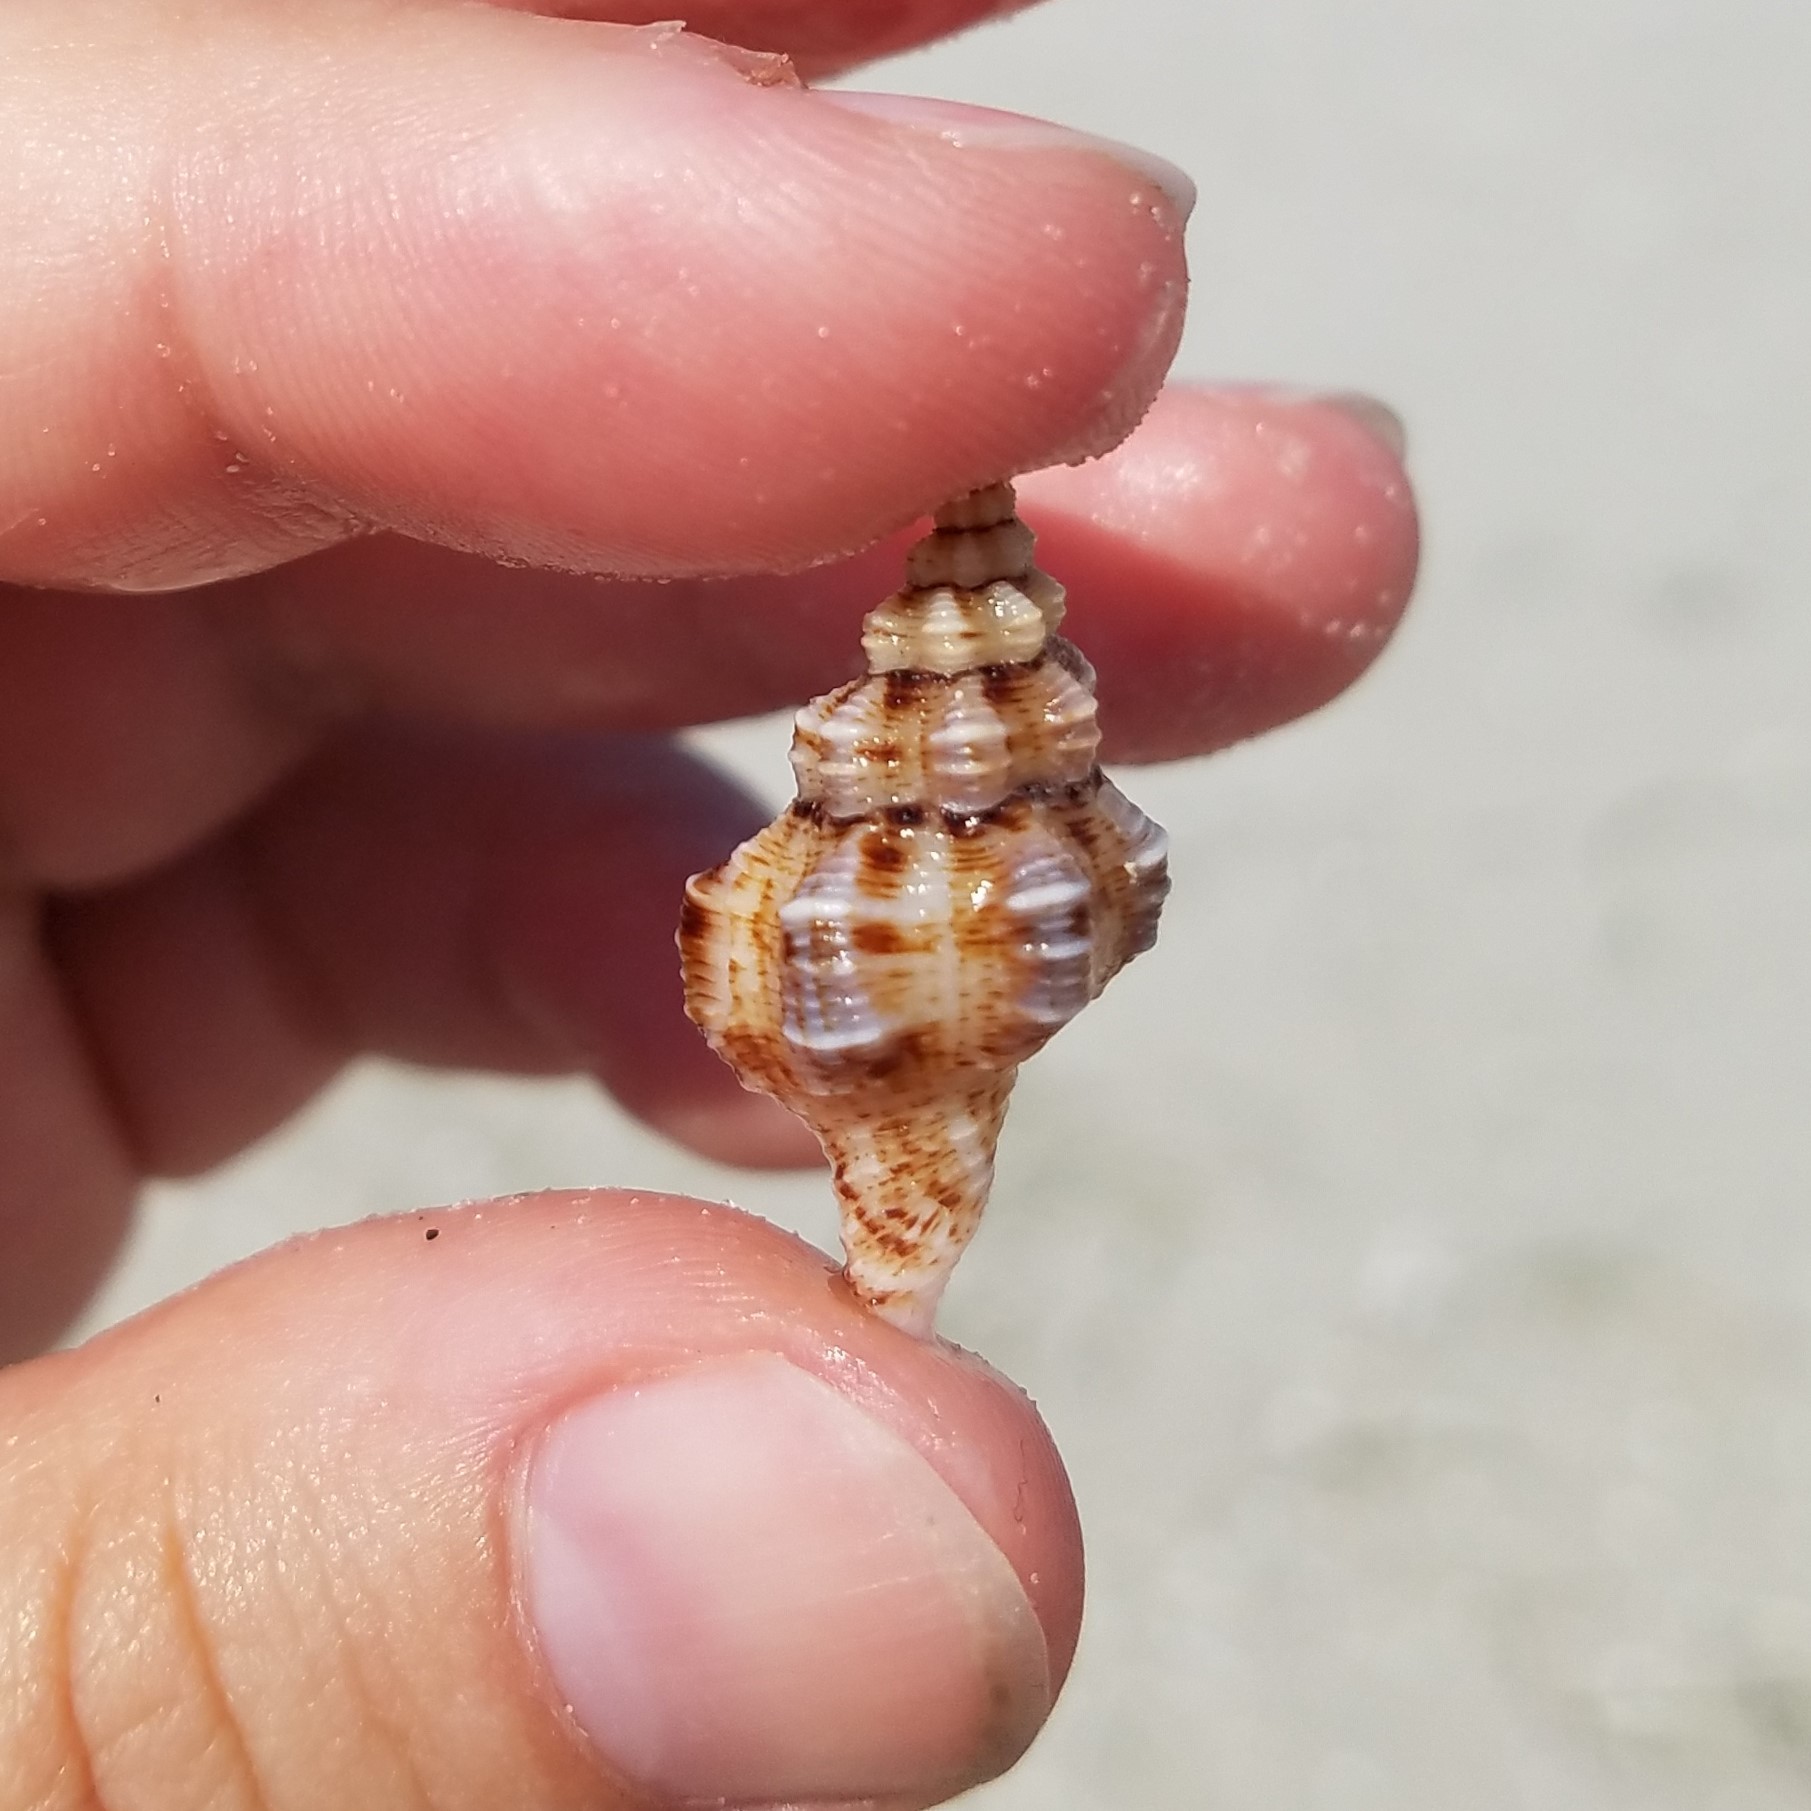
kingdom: Animalia
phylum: Mollusca
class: Gastropoda
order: Neogastropoda
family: Pisaniidae
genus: Hesperisternia
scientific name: Hesperisternia multangulus
